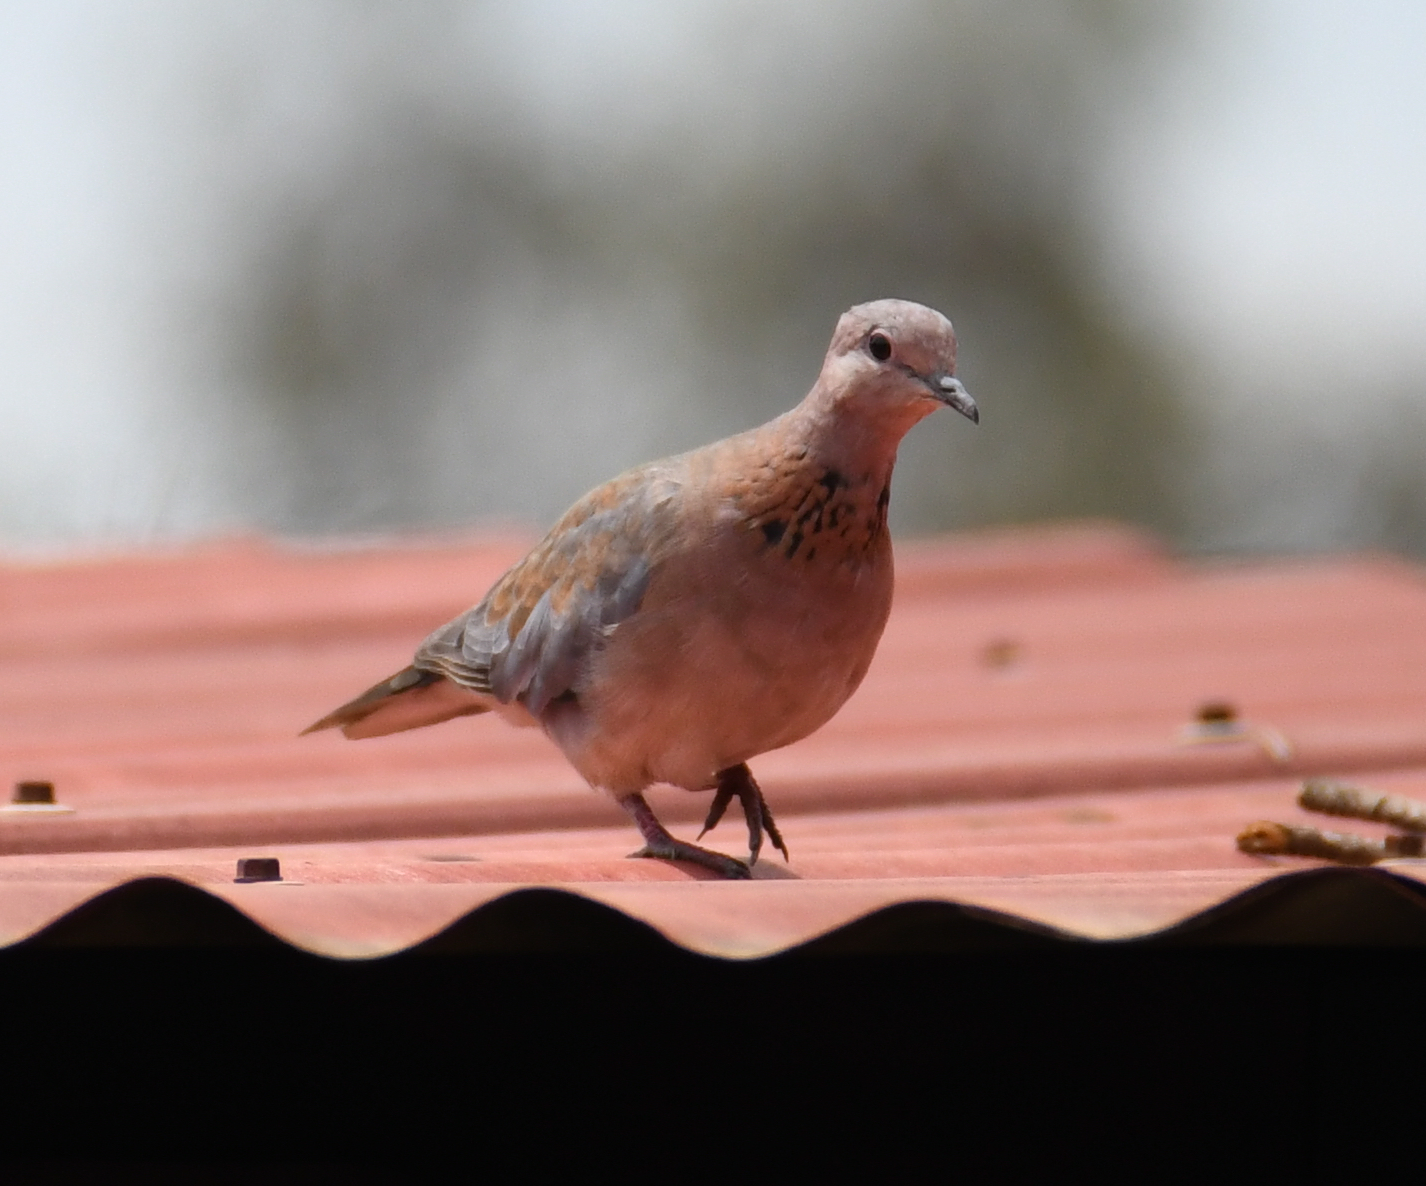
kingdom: Animalia
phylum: Chordata
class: Aves
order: Columbiformes
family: Columbidae
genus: Spilopelia
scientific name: Spilopelia senegalensis
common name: Laughing dove
